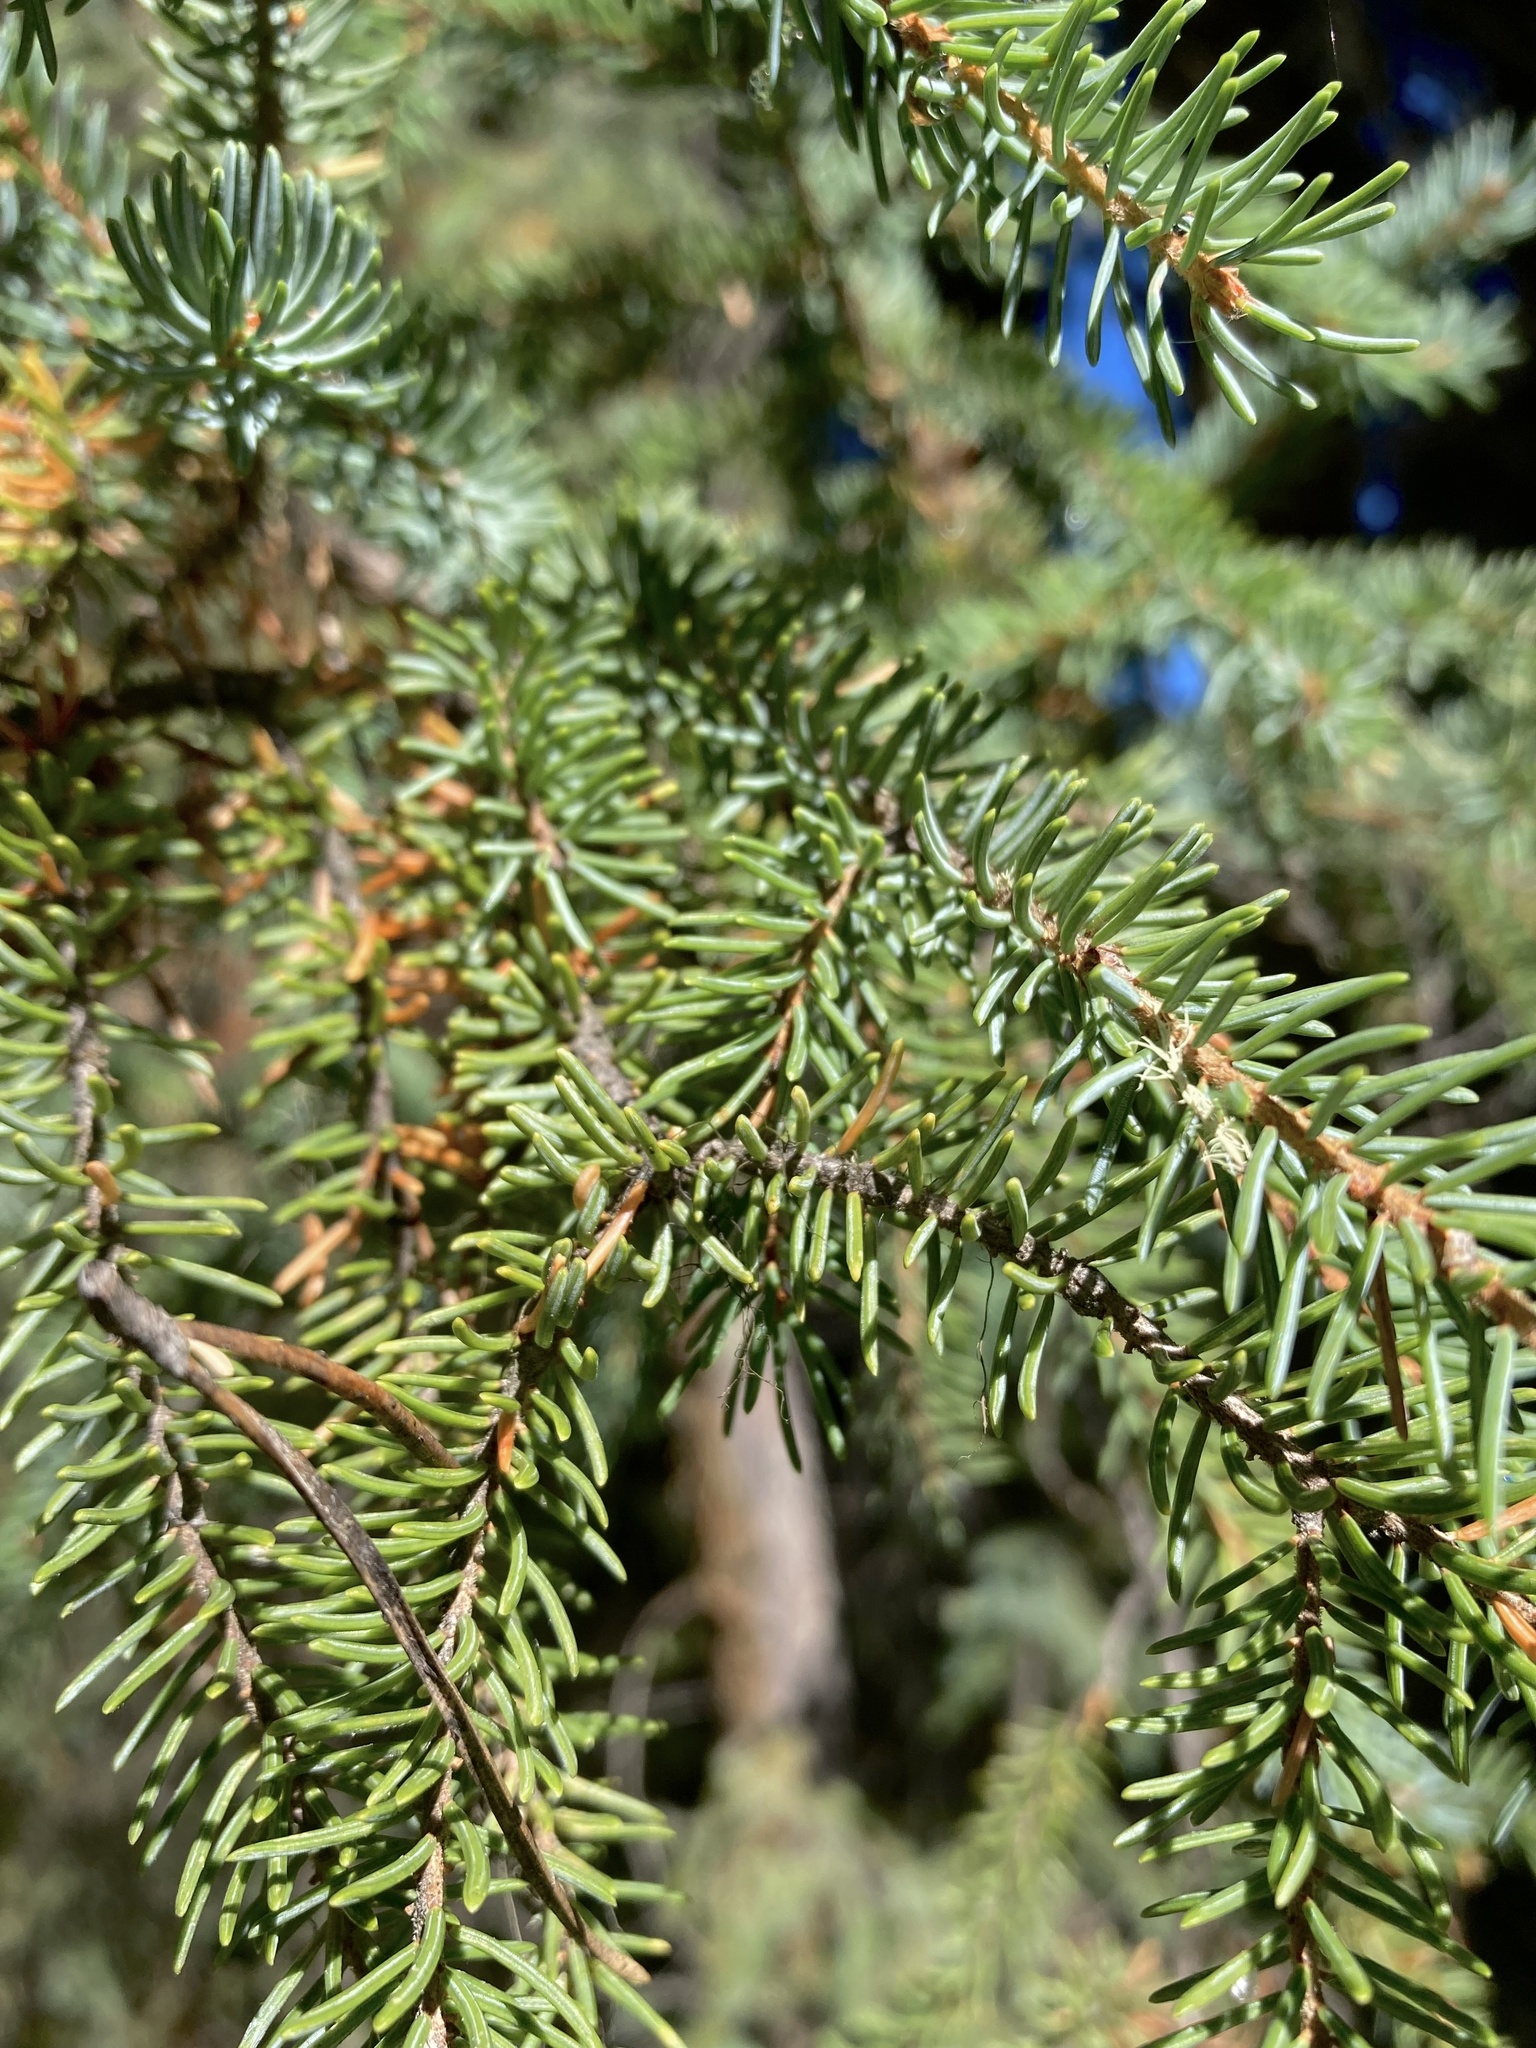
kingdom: Plantae
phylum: Tracheophyta
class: Pinopsida
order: Pinales
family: Pinaceae
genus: Picea
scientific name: Picea mariana
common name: Black spruce
